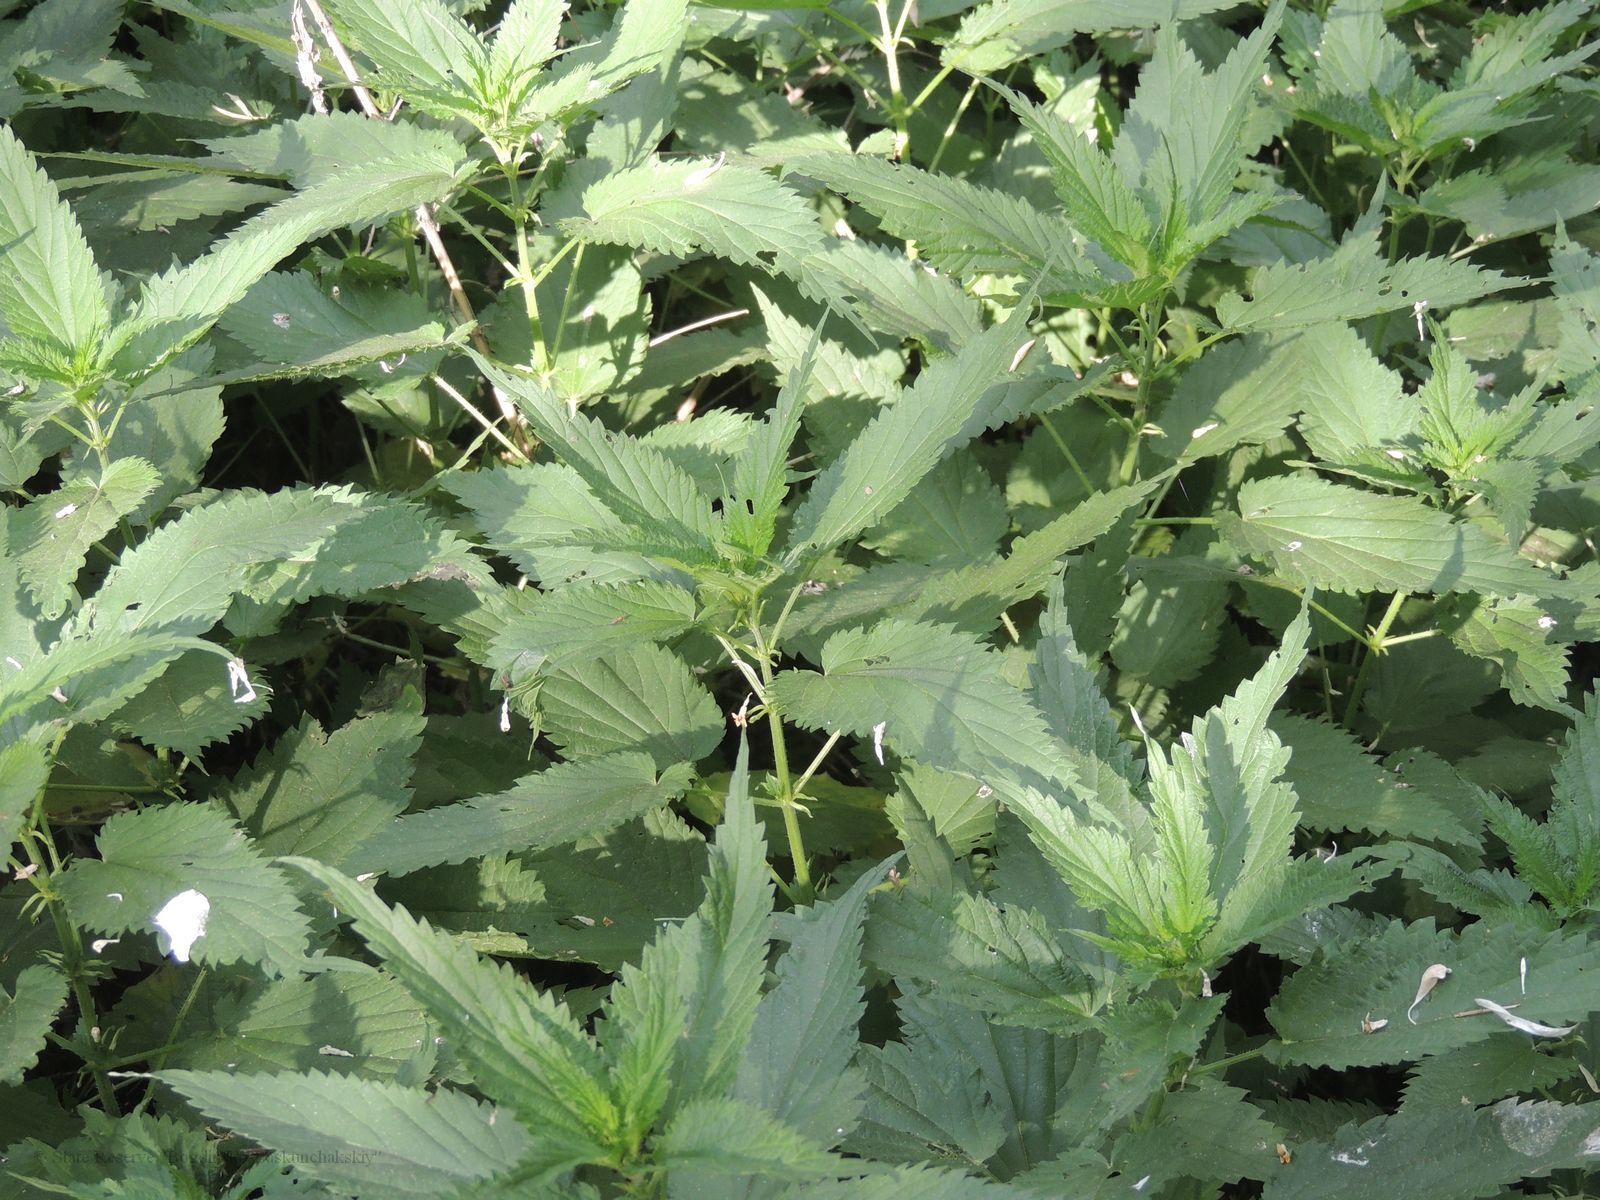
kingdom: Plantae
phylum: Tracheophyta
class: Magnoliopsida
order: Rosales
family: Urticaceae
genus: Urtica
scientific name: Urtica dioica
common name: Common nettle
